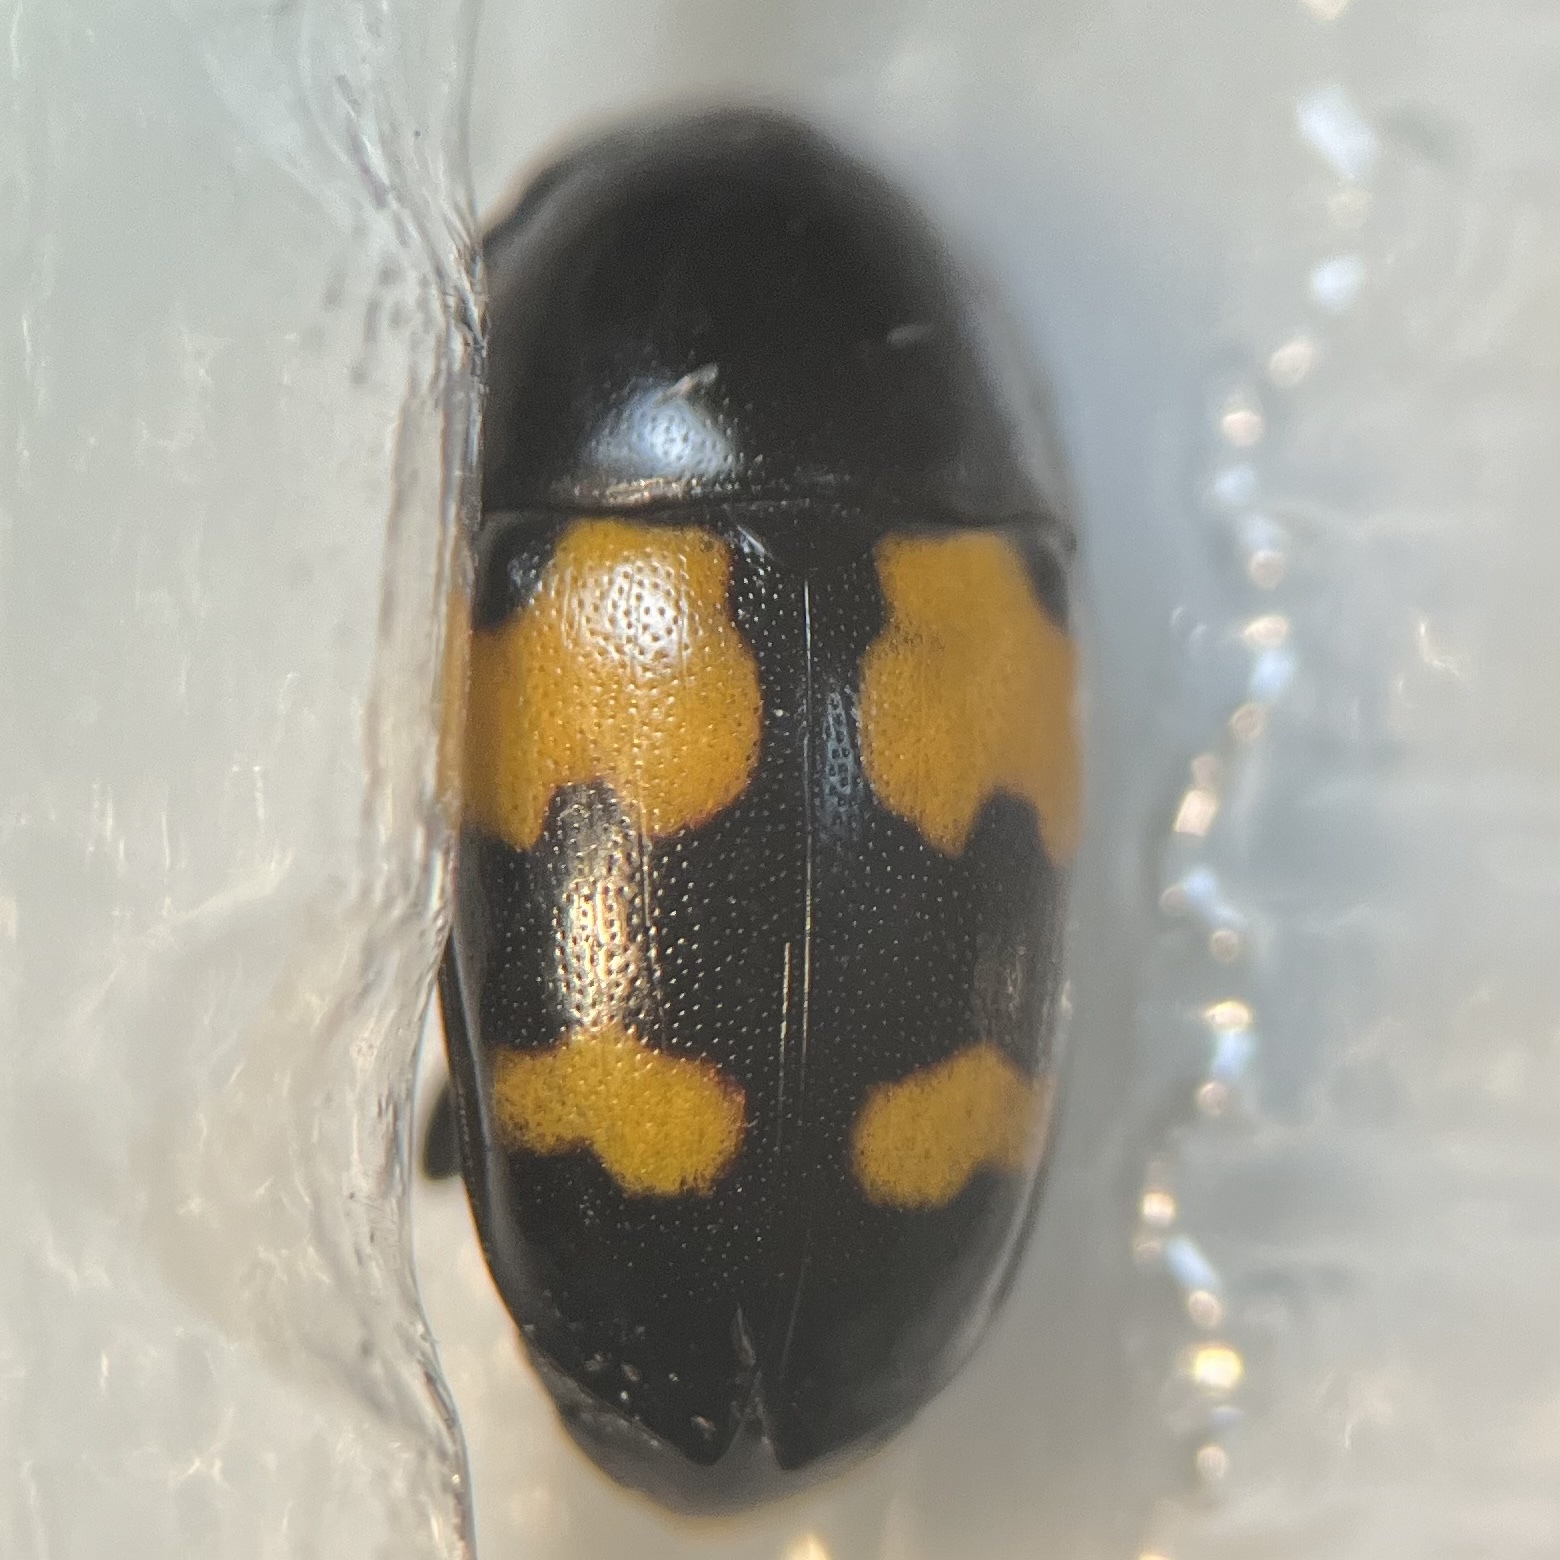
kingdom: Animalia
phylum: Arthropoda
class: Insecta
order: Coleoptera
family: Nitidulidae
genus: Glischrochilus
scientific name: Glischrochilus fasciatus
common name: Picnic beetle
